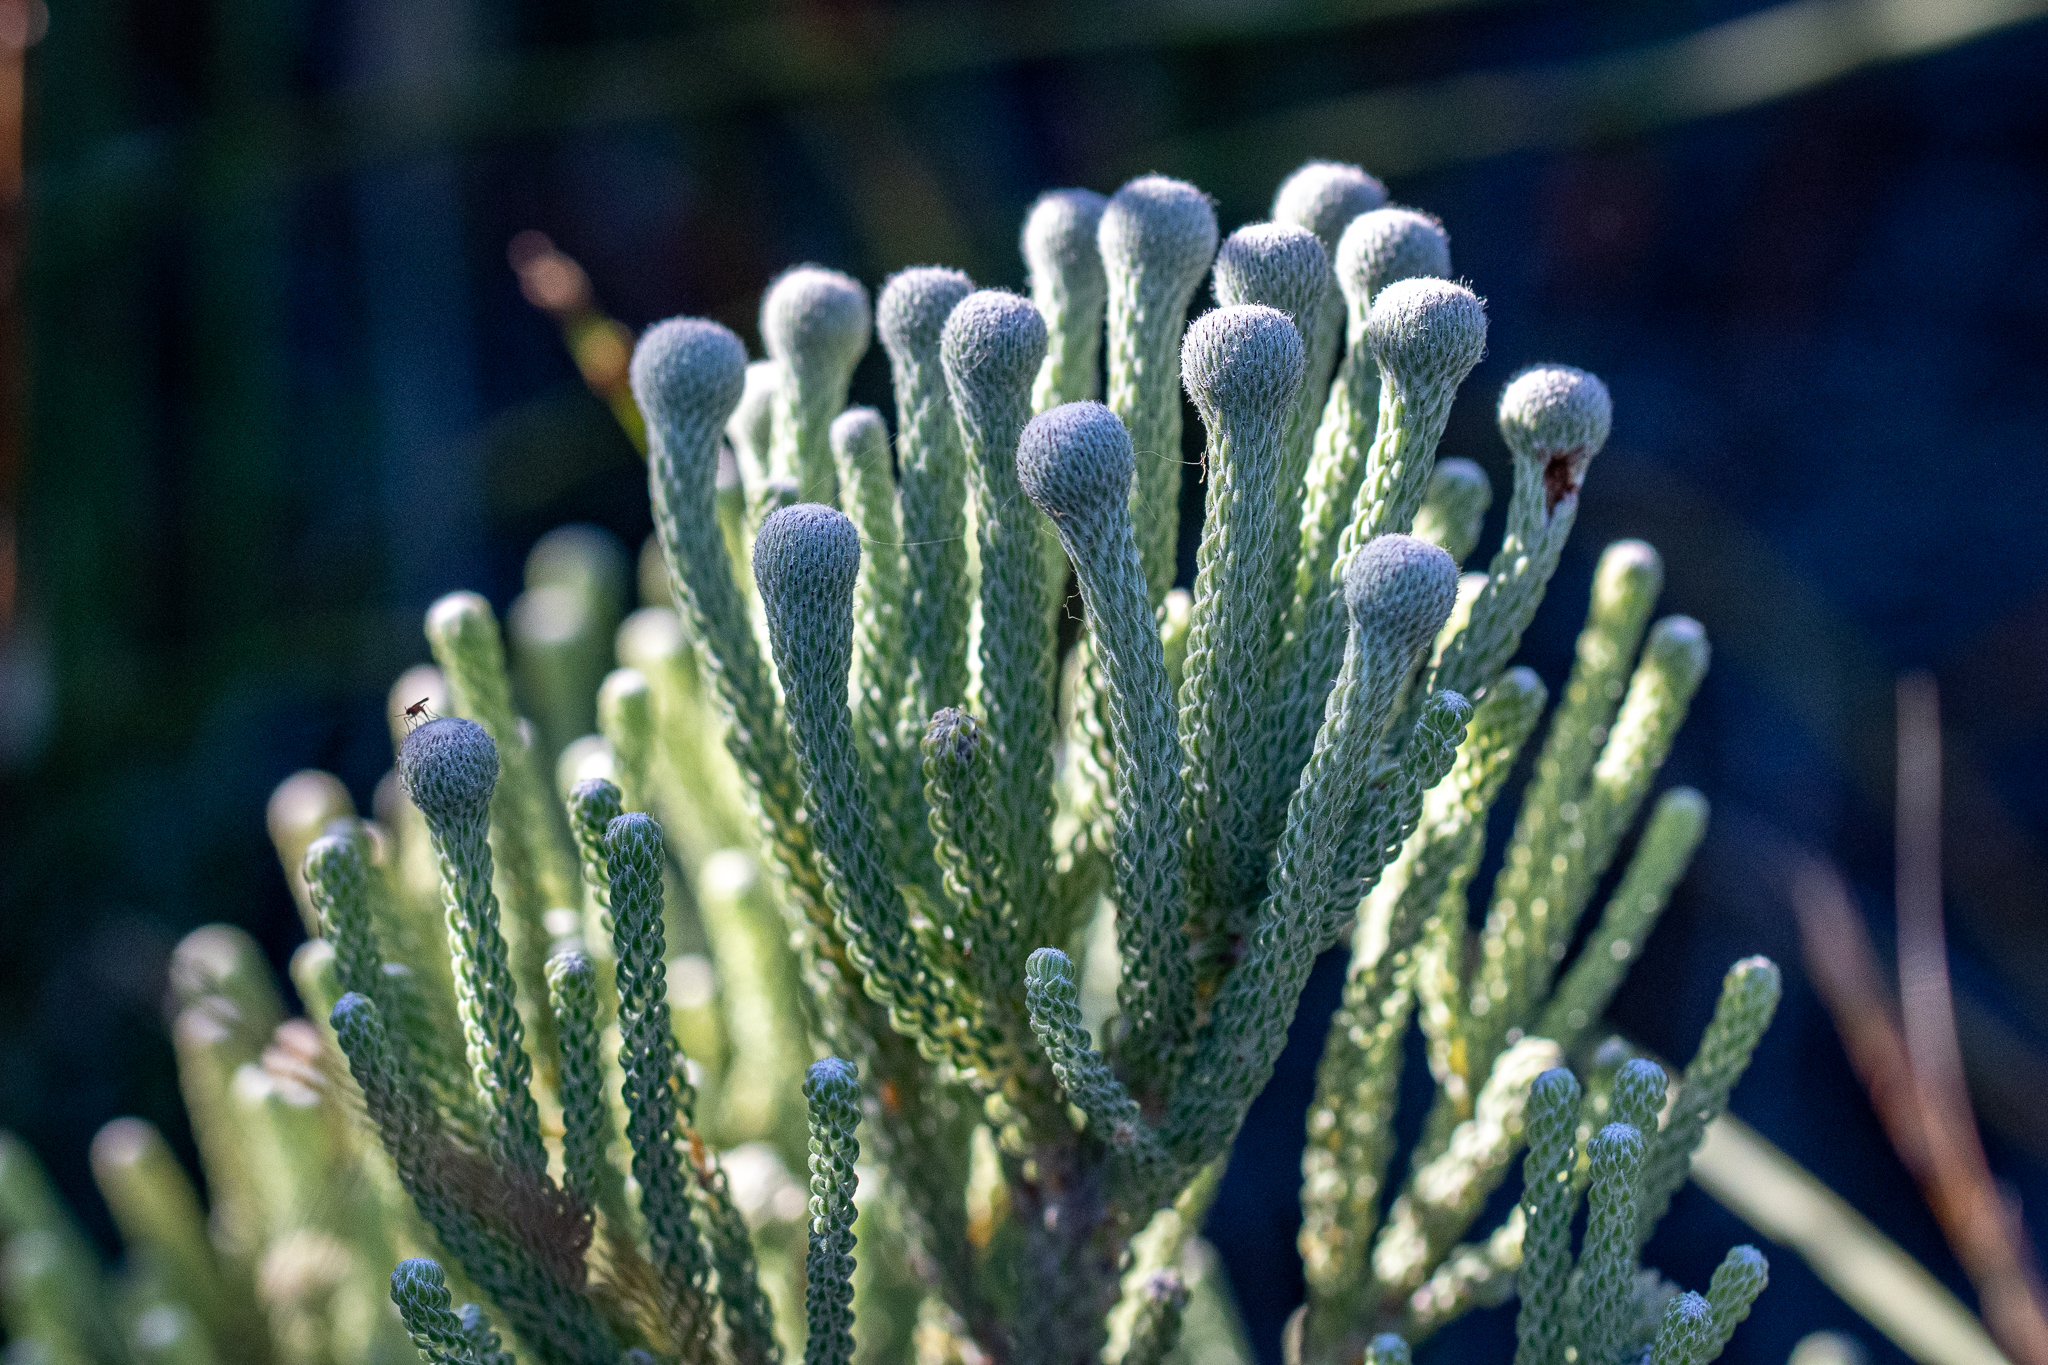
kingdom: Plantae
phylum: Tracheophyta
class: Magnoliopsida
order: Bruniales
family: Bruniaceae
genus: Brunia
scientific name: Brunia laevis
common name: Silver brunia
